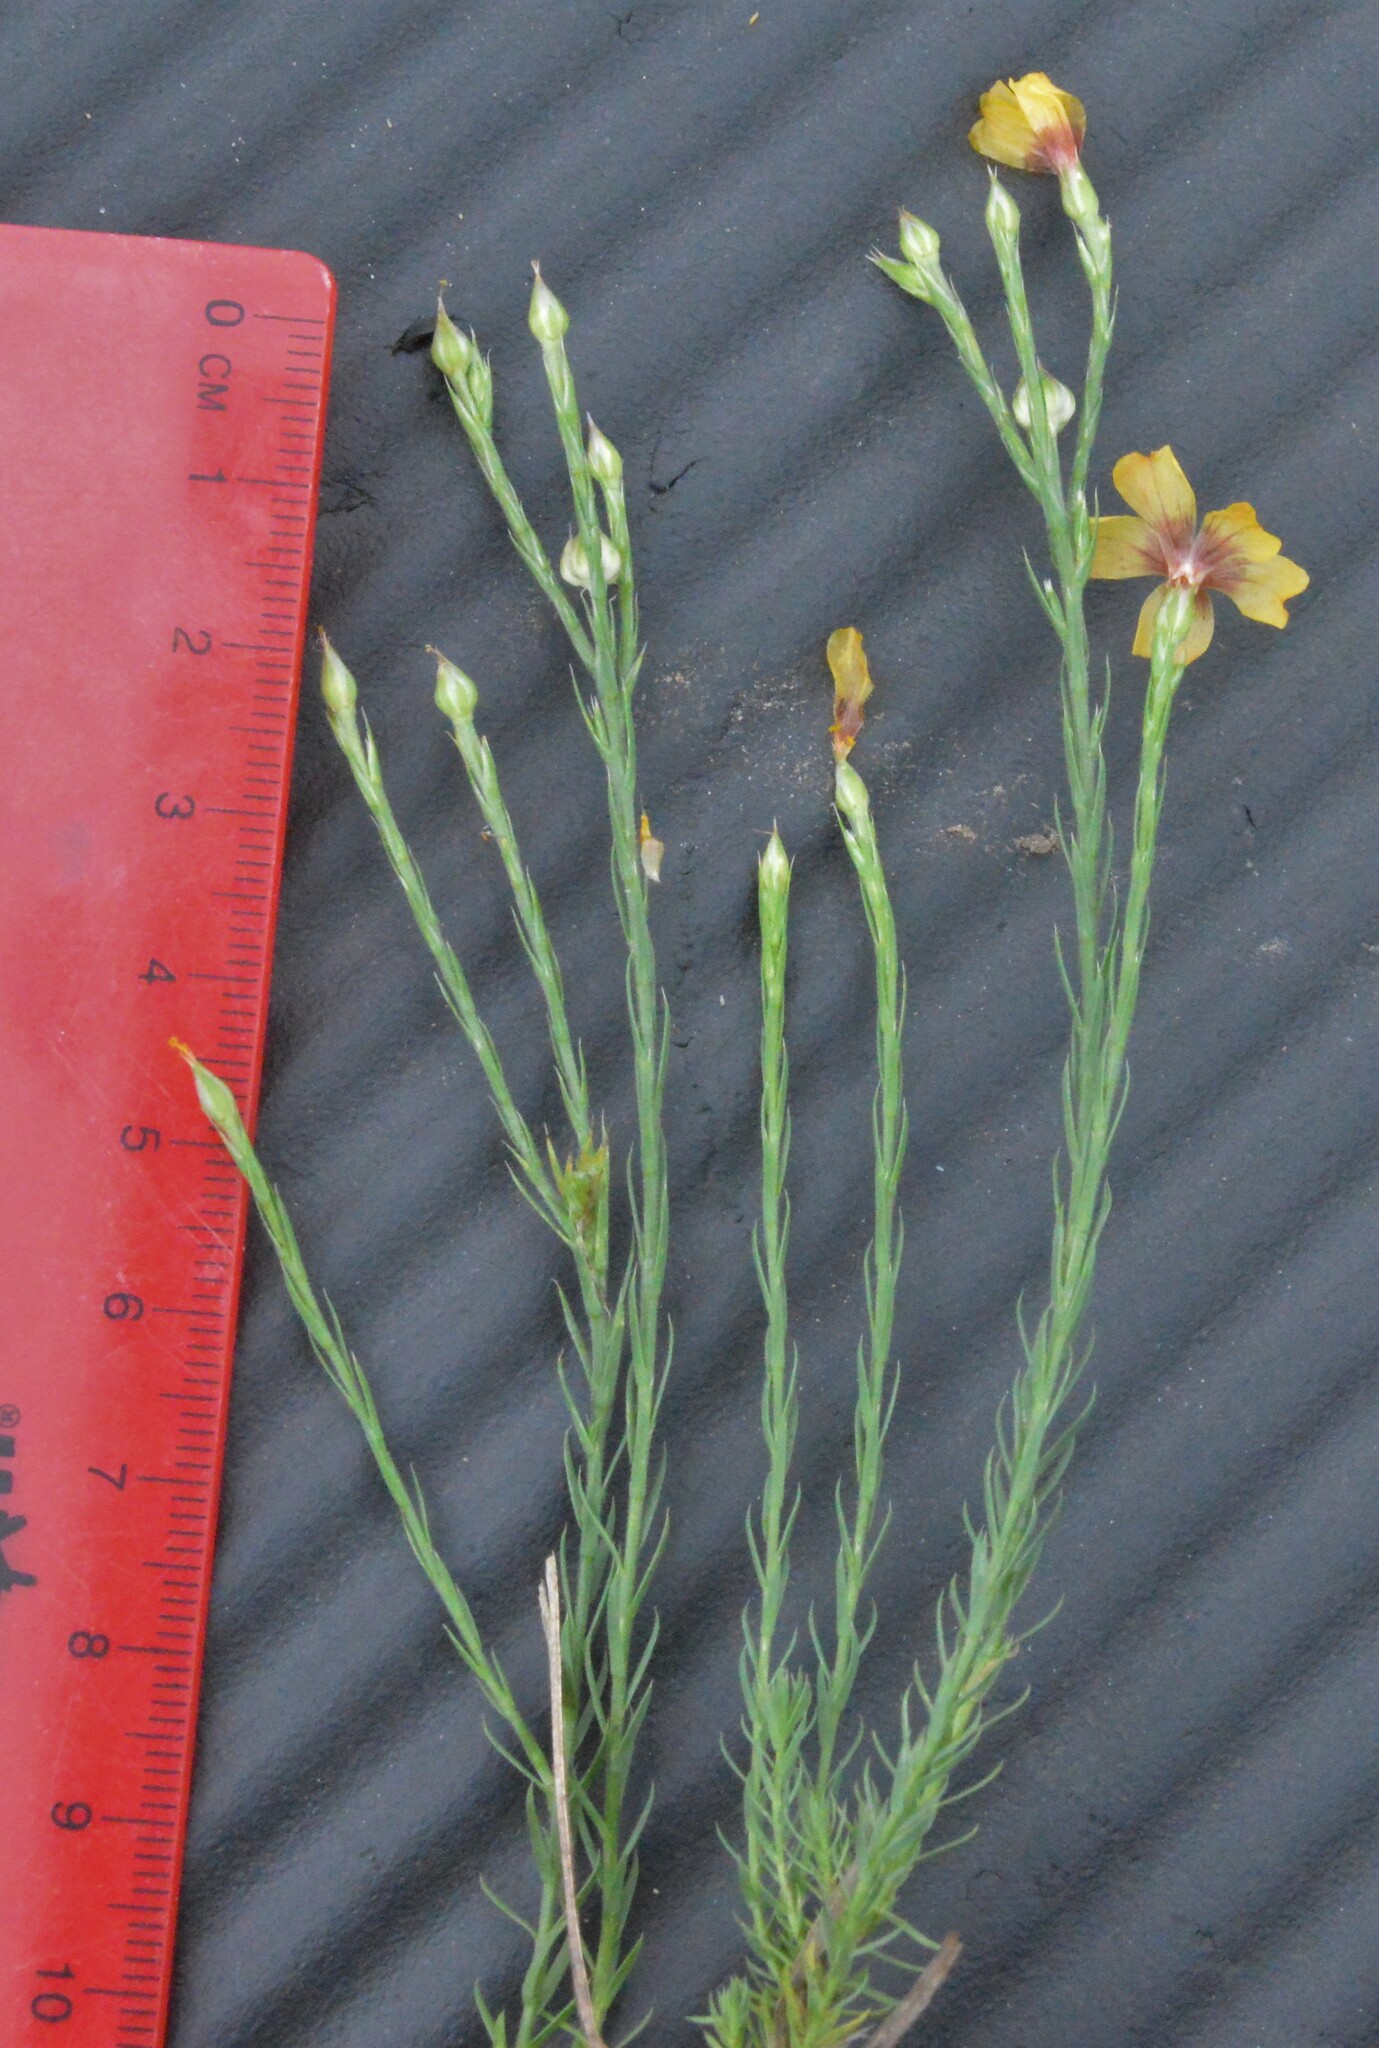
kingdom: Plantae
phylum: Tracheophyta
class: Magnoliopsida
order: Malpighiales
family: Linaceae
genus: Linum
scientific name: Linum imbricatum
